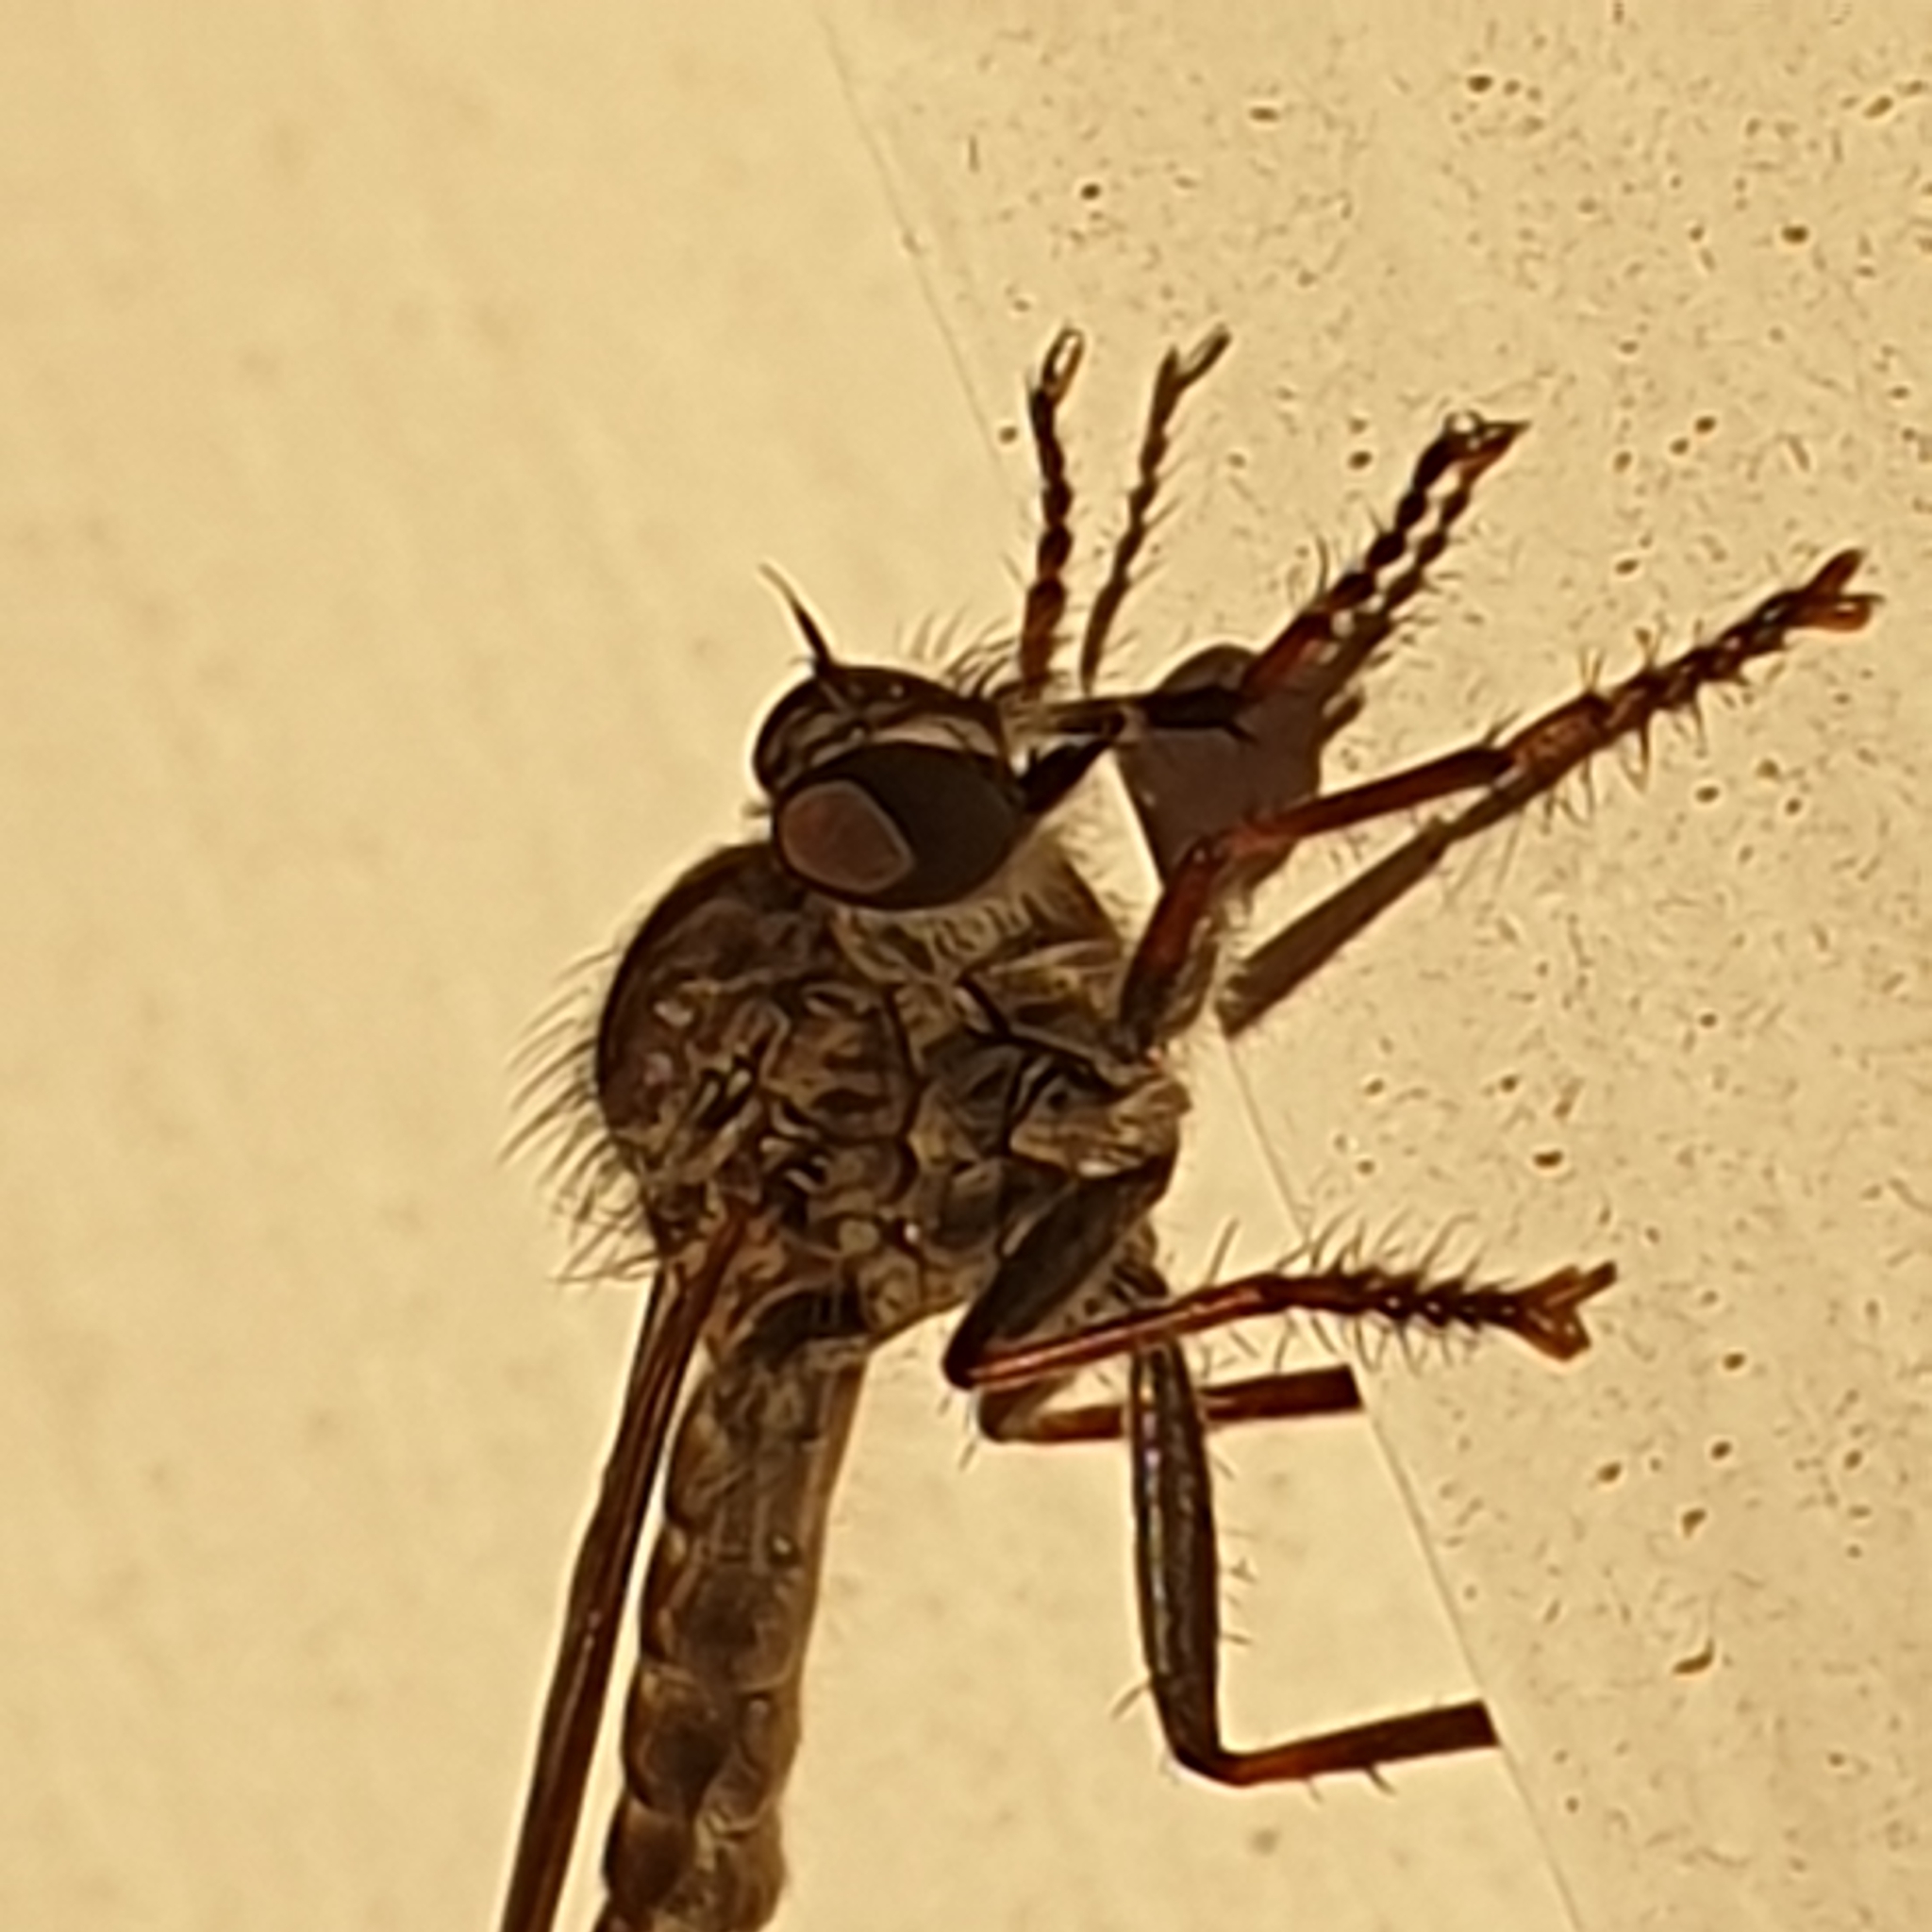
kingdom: Animalia
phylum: Arthropoda
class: Insecta
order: Diptera
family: Asilidae
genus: Machimus
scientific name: Machimus atricapillus
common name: Kite-tailed robberfly
